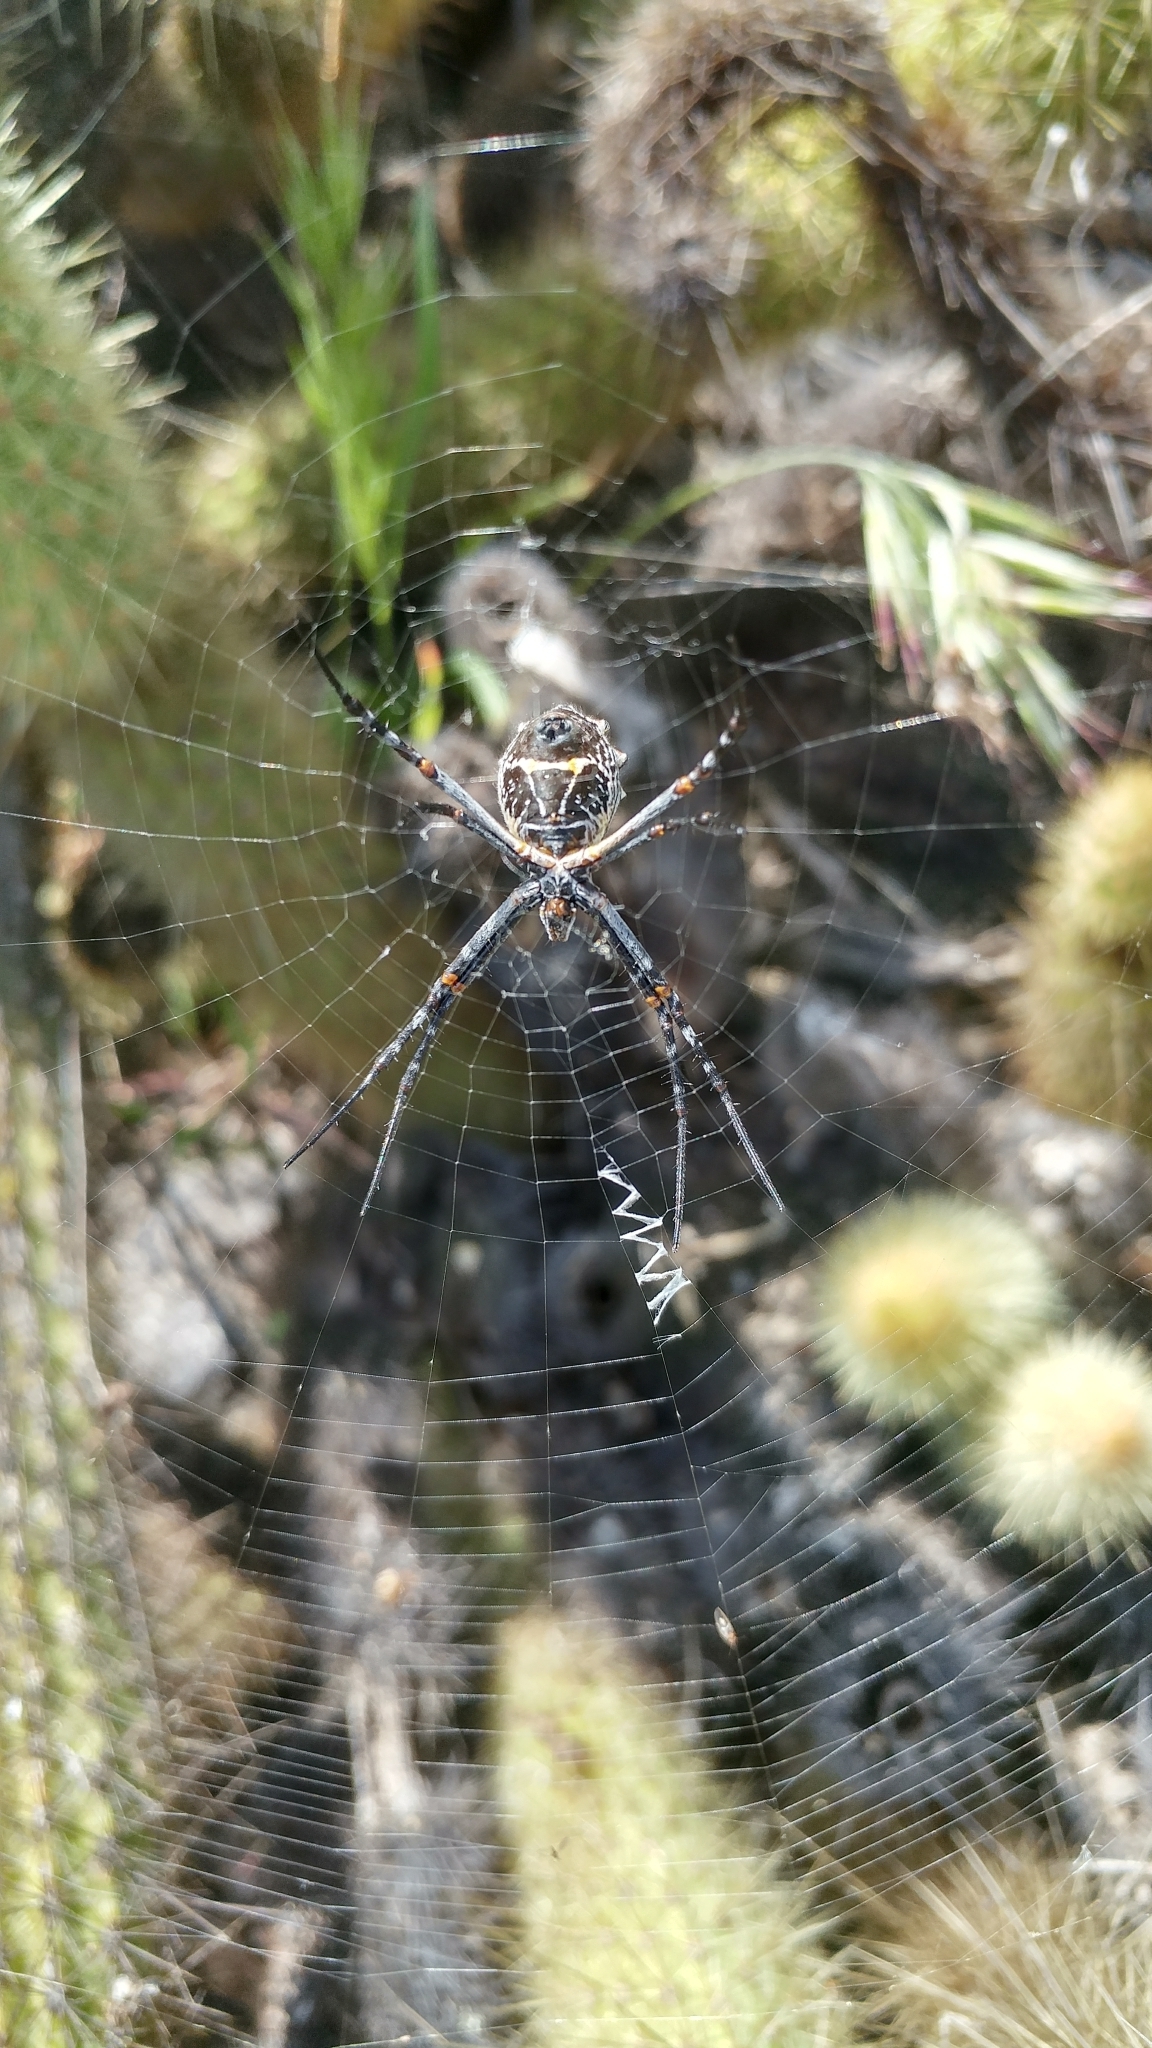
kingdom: Animalia
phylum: Arthropoda
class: Arachnida
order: Araneae
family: Araneidae
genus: Argiope
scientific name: Argiope argentata
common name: Orb weavers
